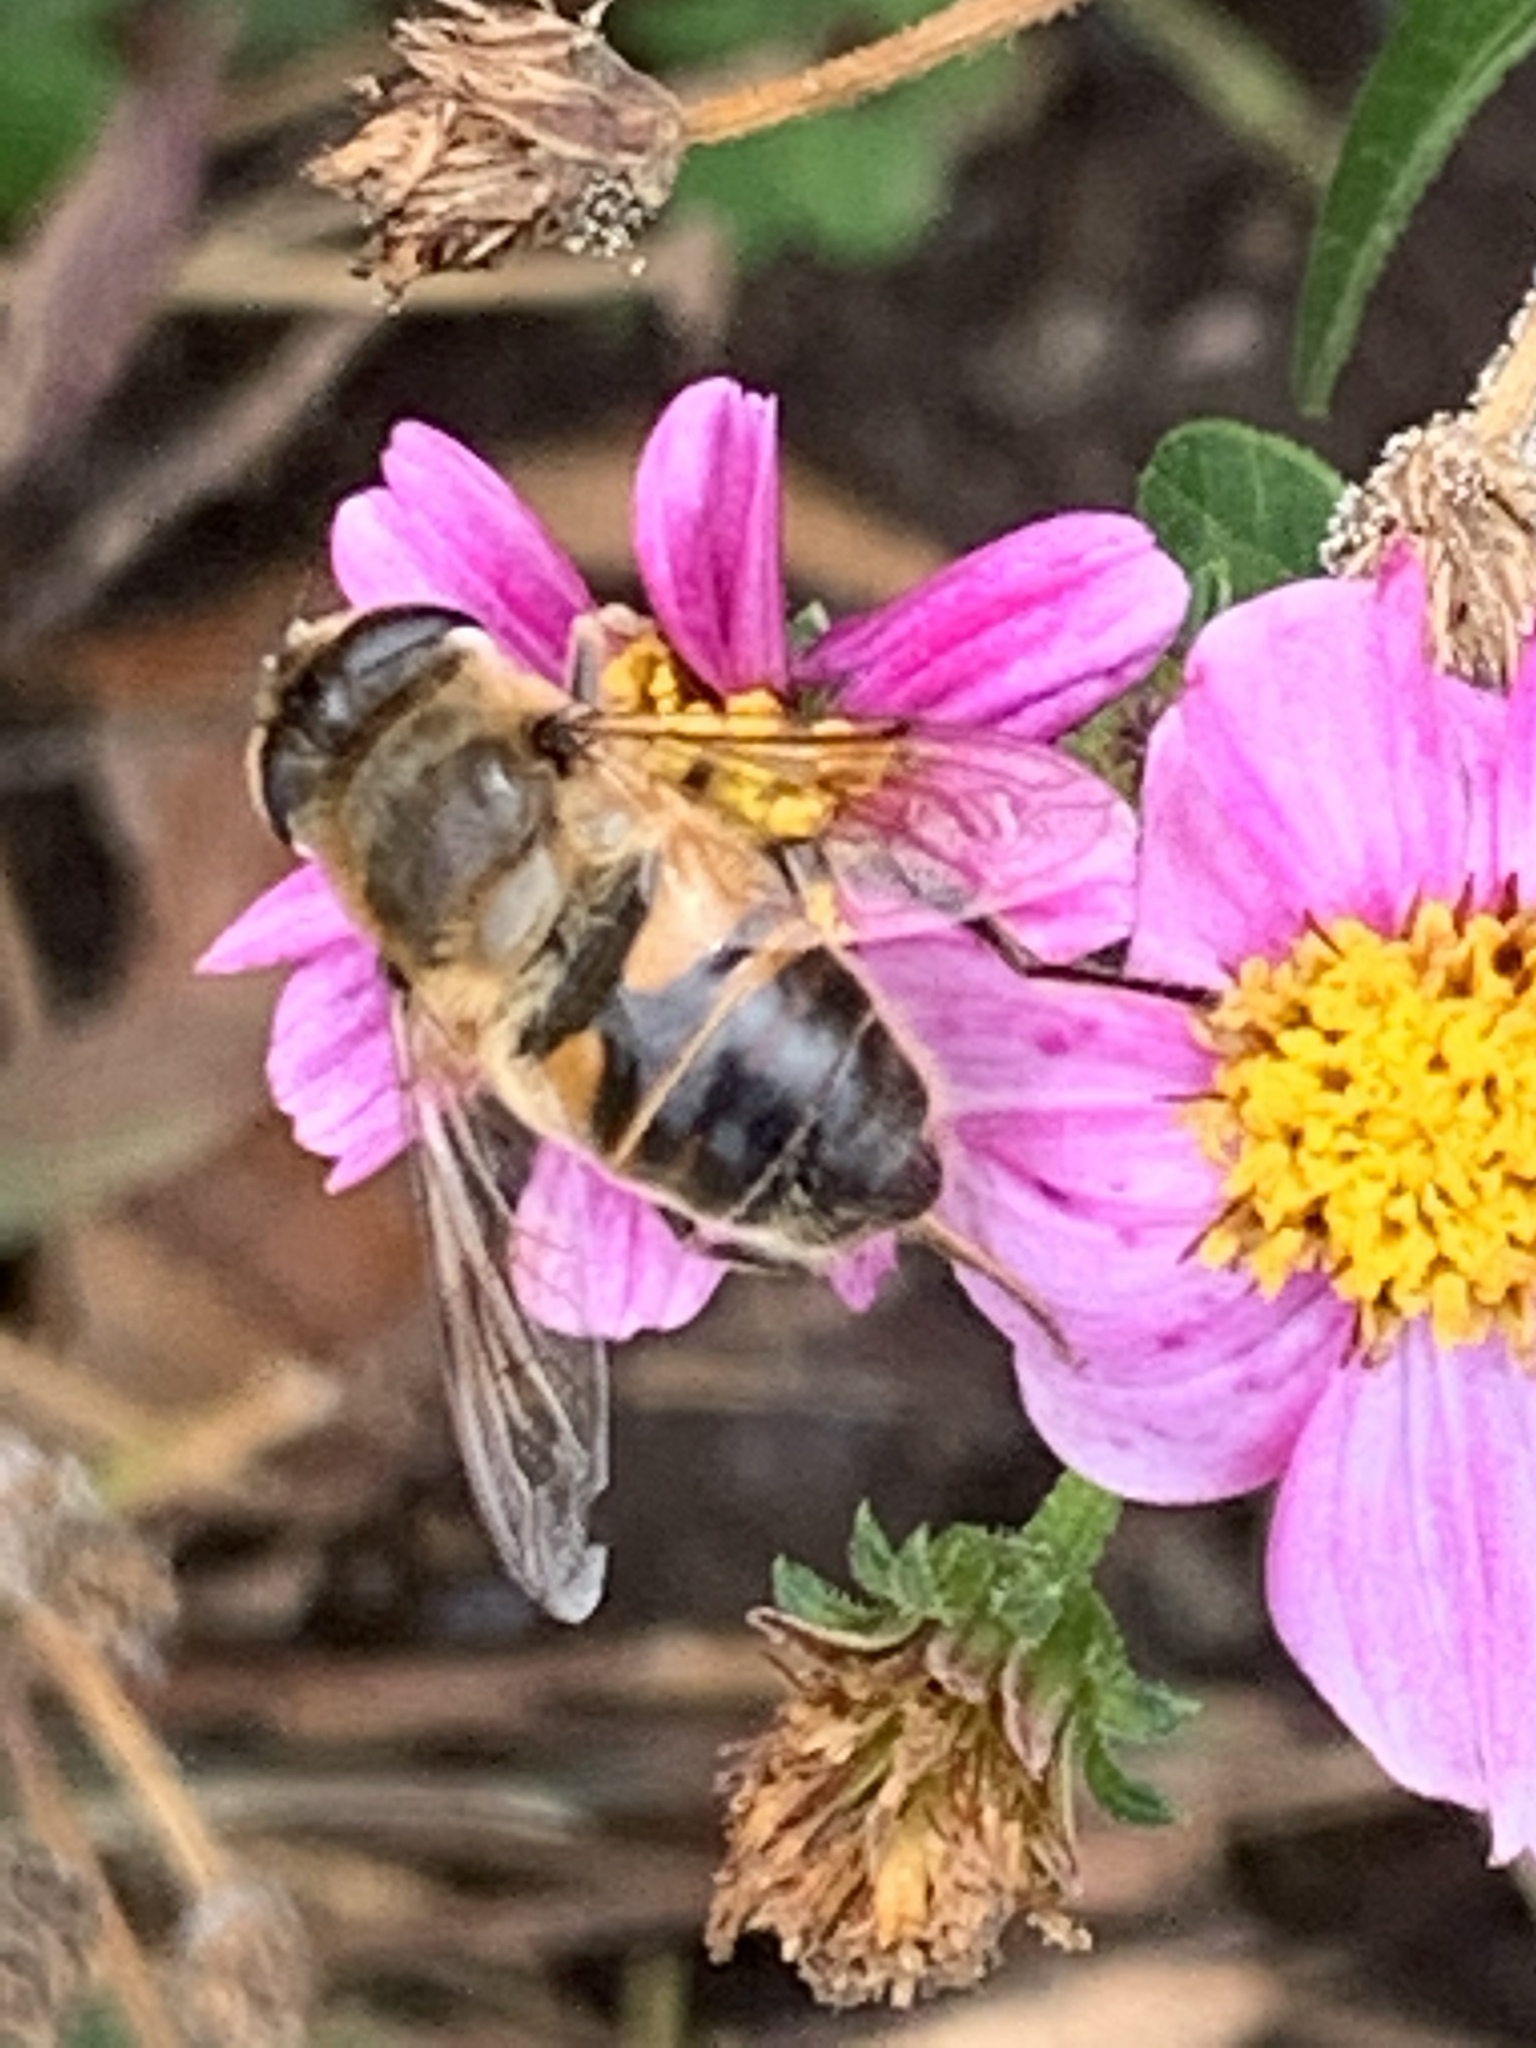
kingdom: Animalia
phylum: Arthropoda
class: Insecta
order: Diptera
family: Syrphidae
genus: Eristalis
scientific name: Eristalis tenax
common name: Drone fly
